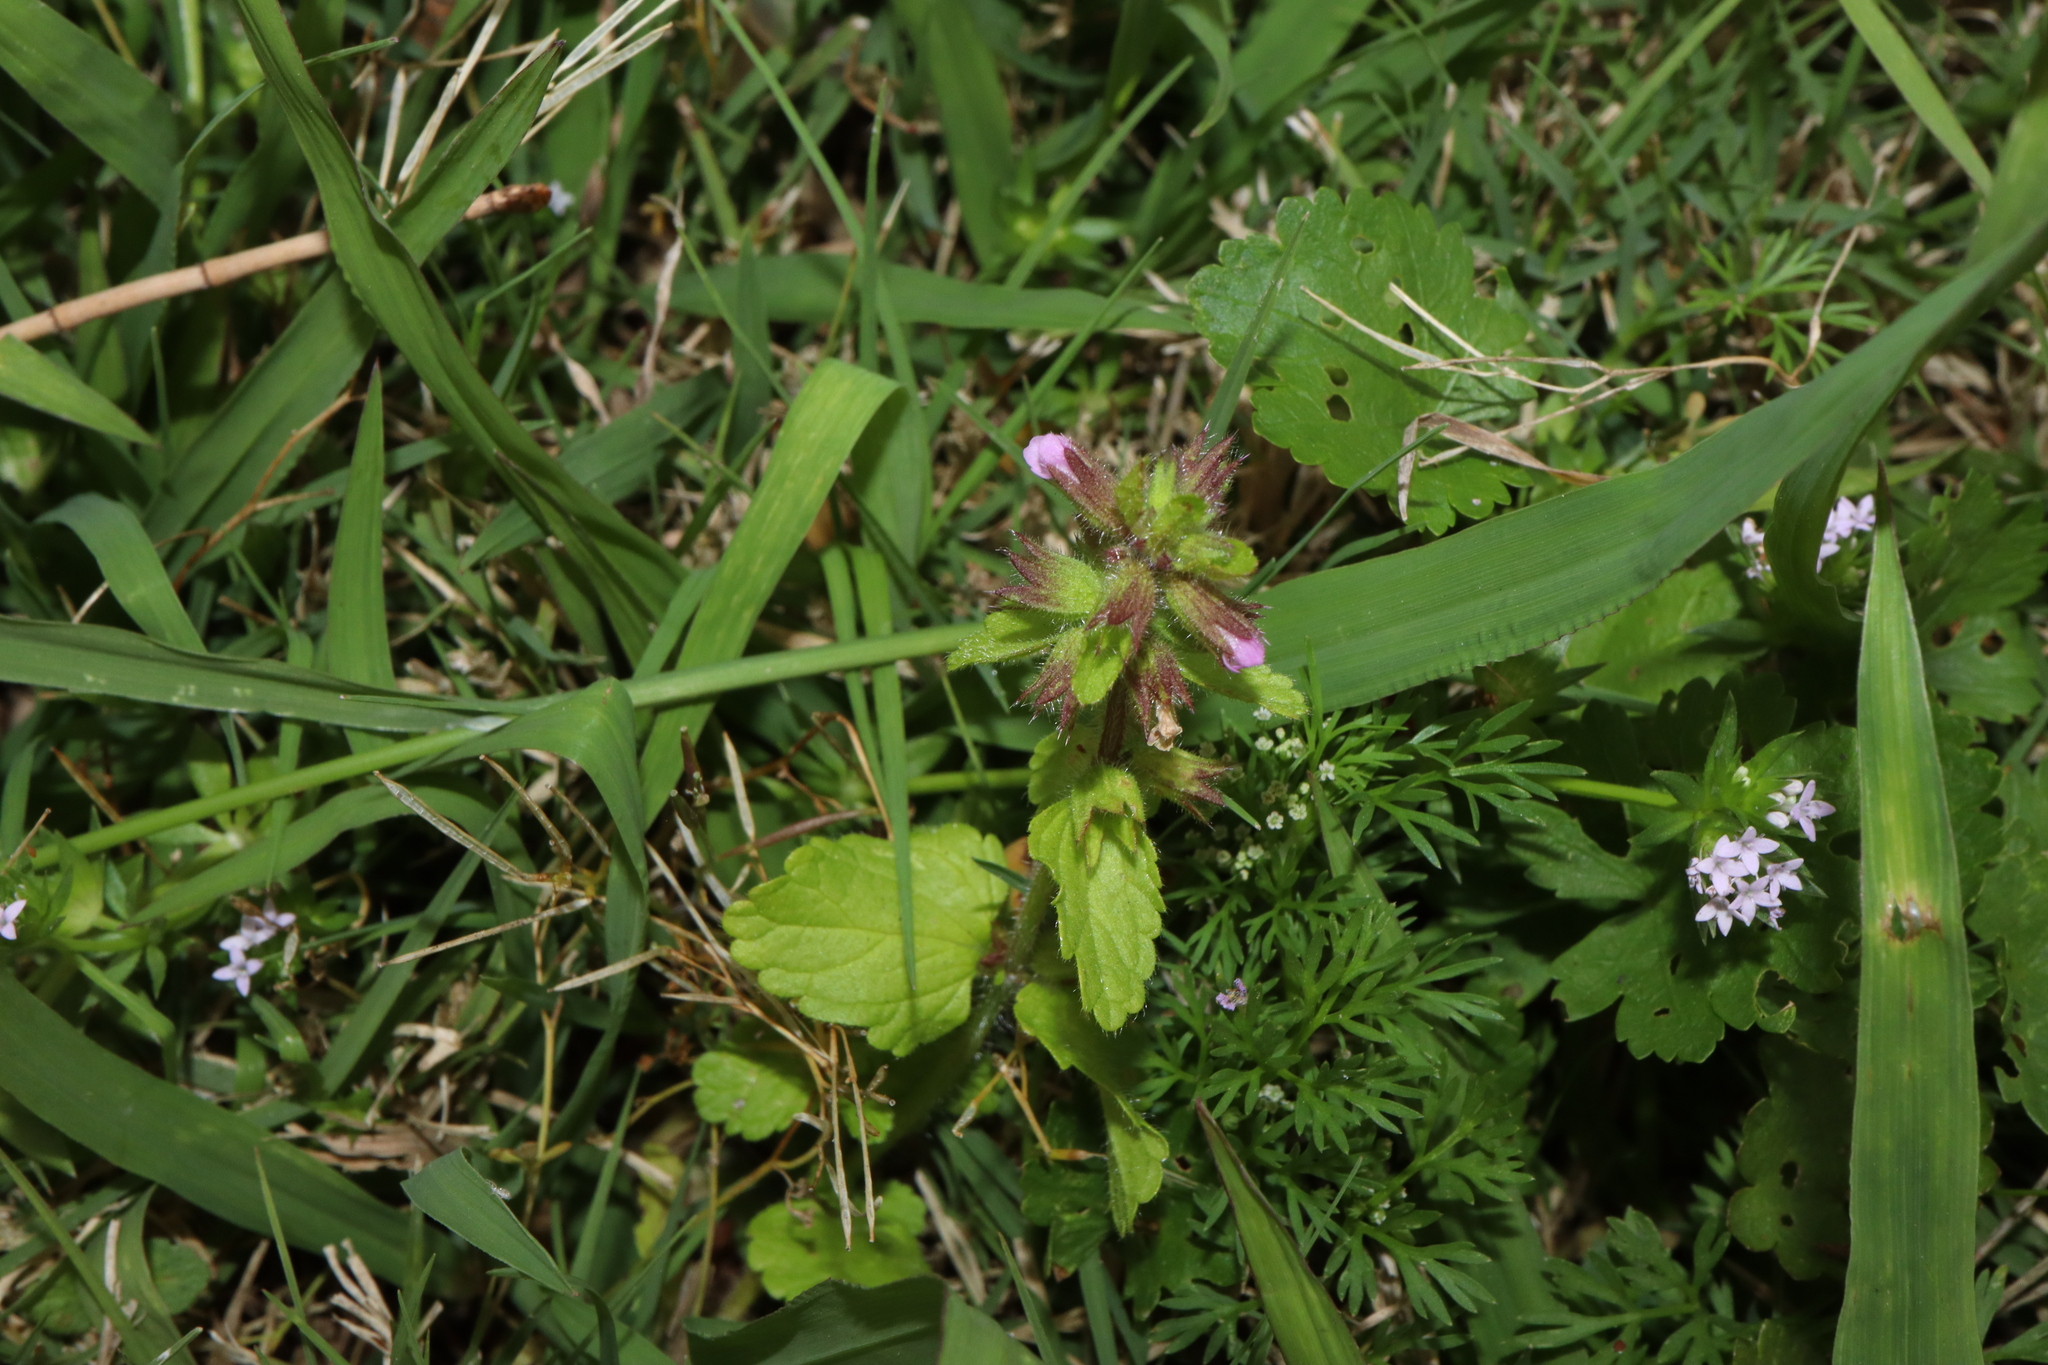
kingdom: Plantae
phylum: Tracheophyta
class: Magnoliopsida
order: Lamiales
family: Lamiaceae
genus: Stachys
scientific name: Stachys arvensis
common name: Field woundwort
